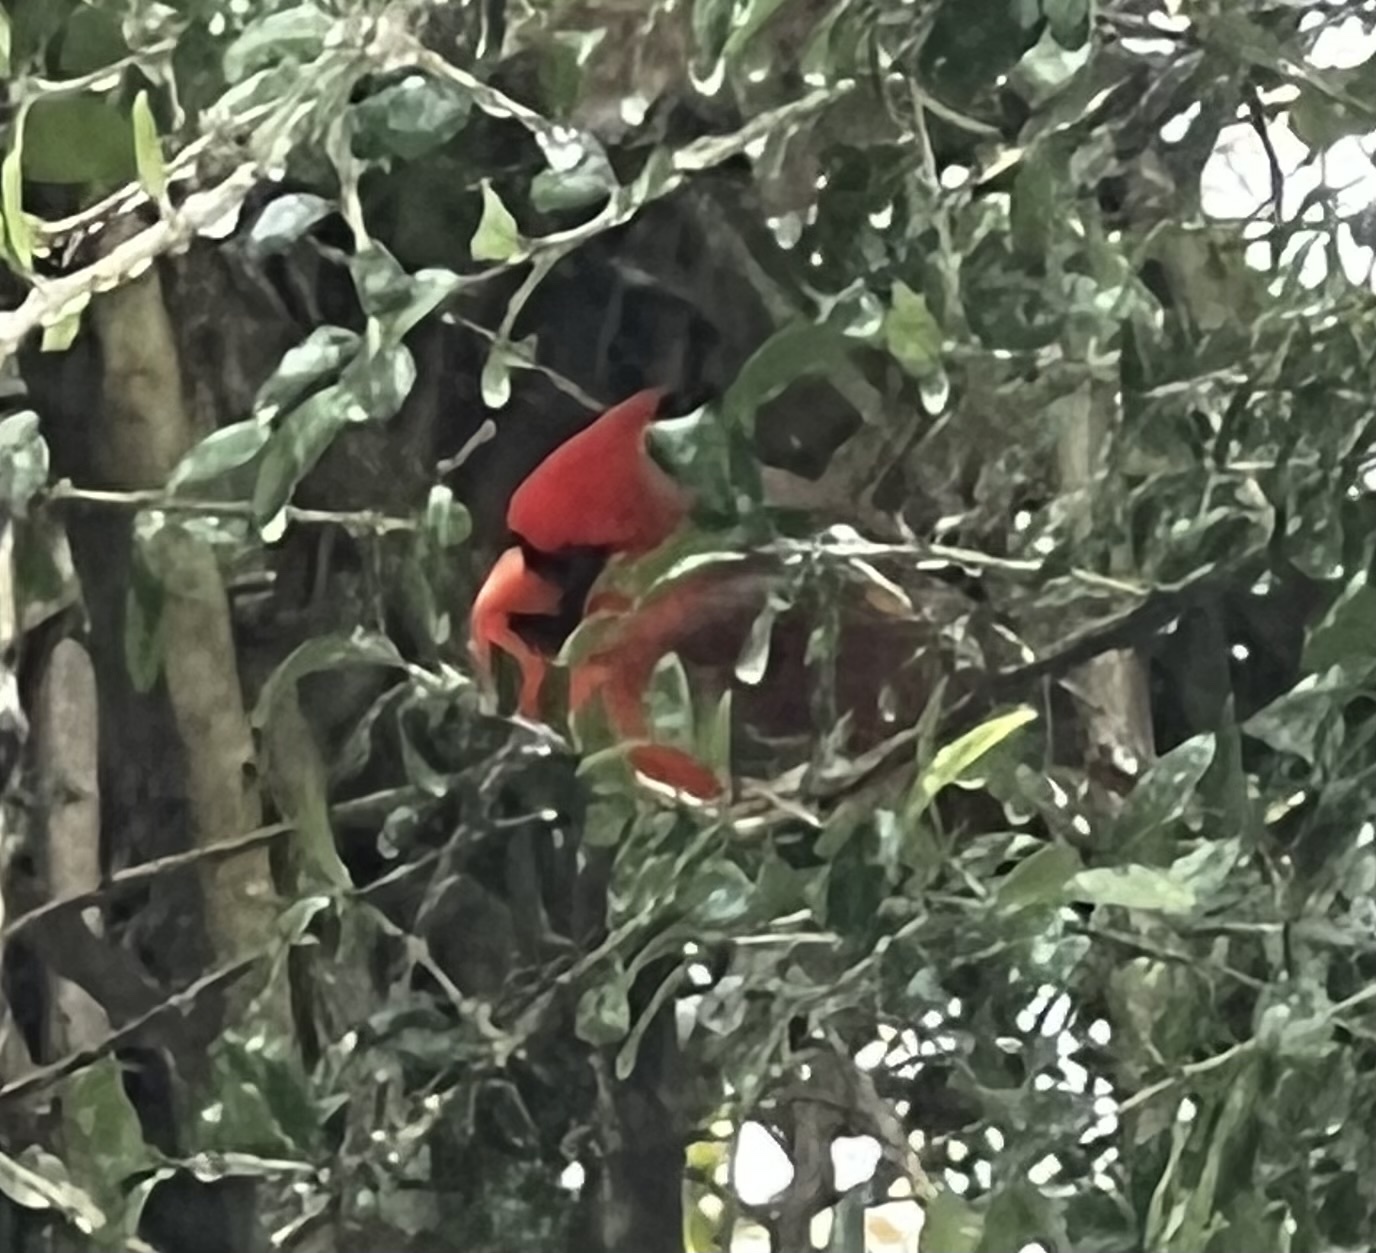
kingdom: Animalia
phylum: Chordata
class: Aves
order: Passeriformes
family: Cardinalidae
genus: Cardinalis
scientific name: Cardinalis cardinalis
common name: Northern cardinal
